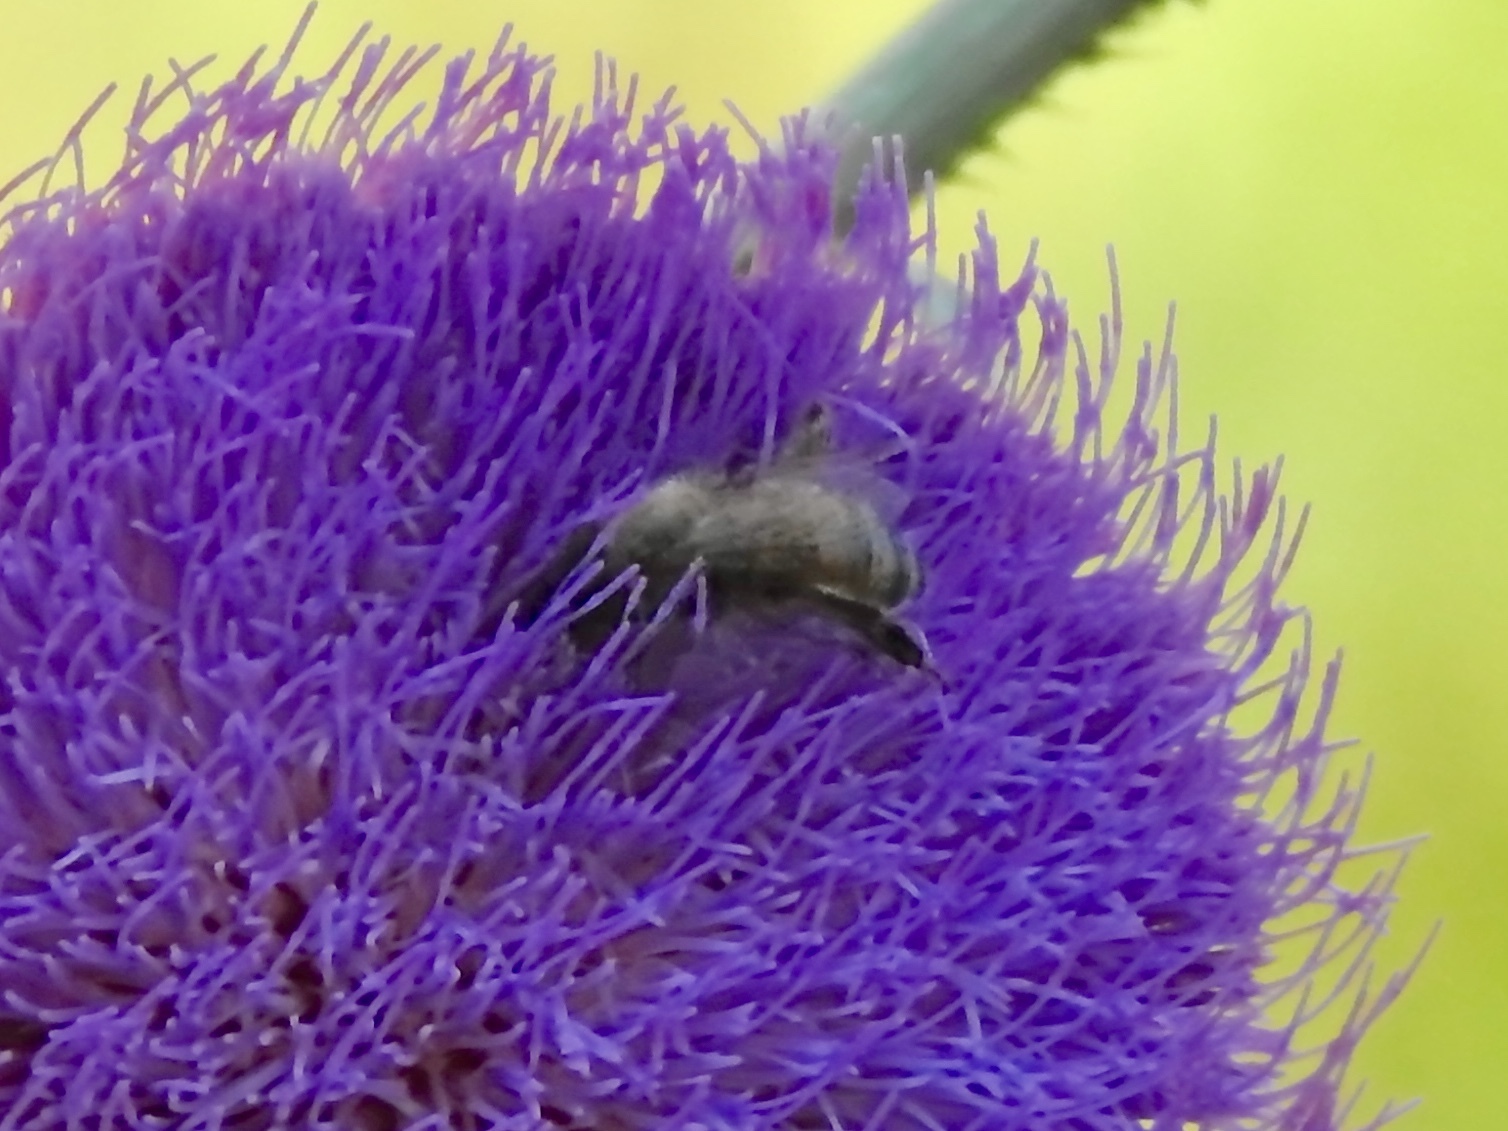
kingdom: Animalia
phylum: Arthropoda
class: Insecta
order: Hymenoptera
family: Apidae
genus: Apis
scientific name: Apis mellifera
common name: Honey bee
